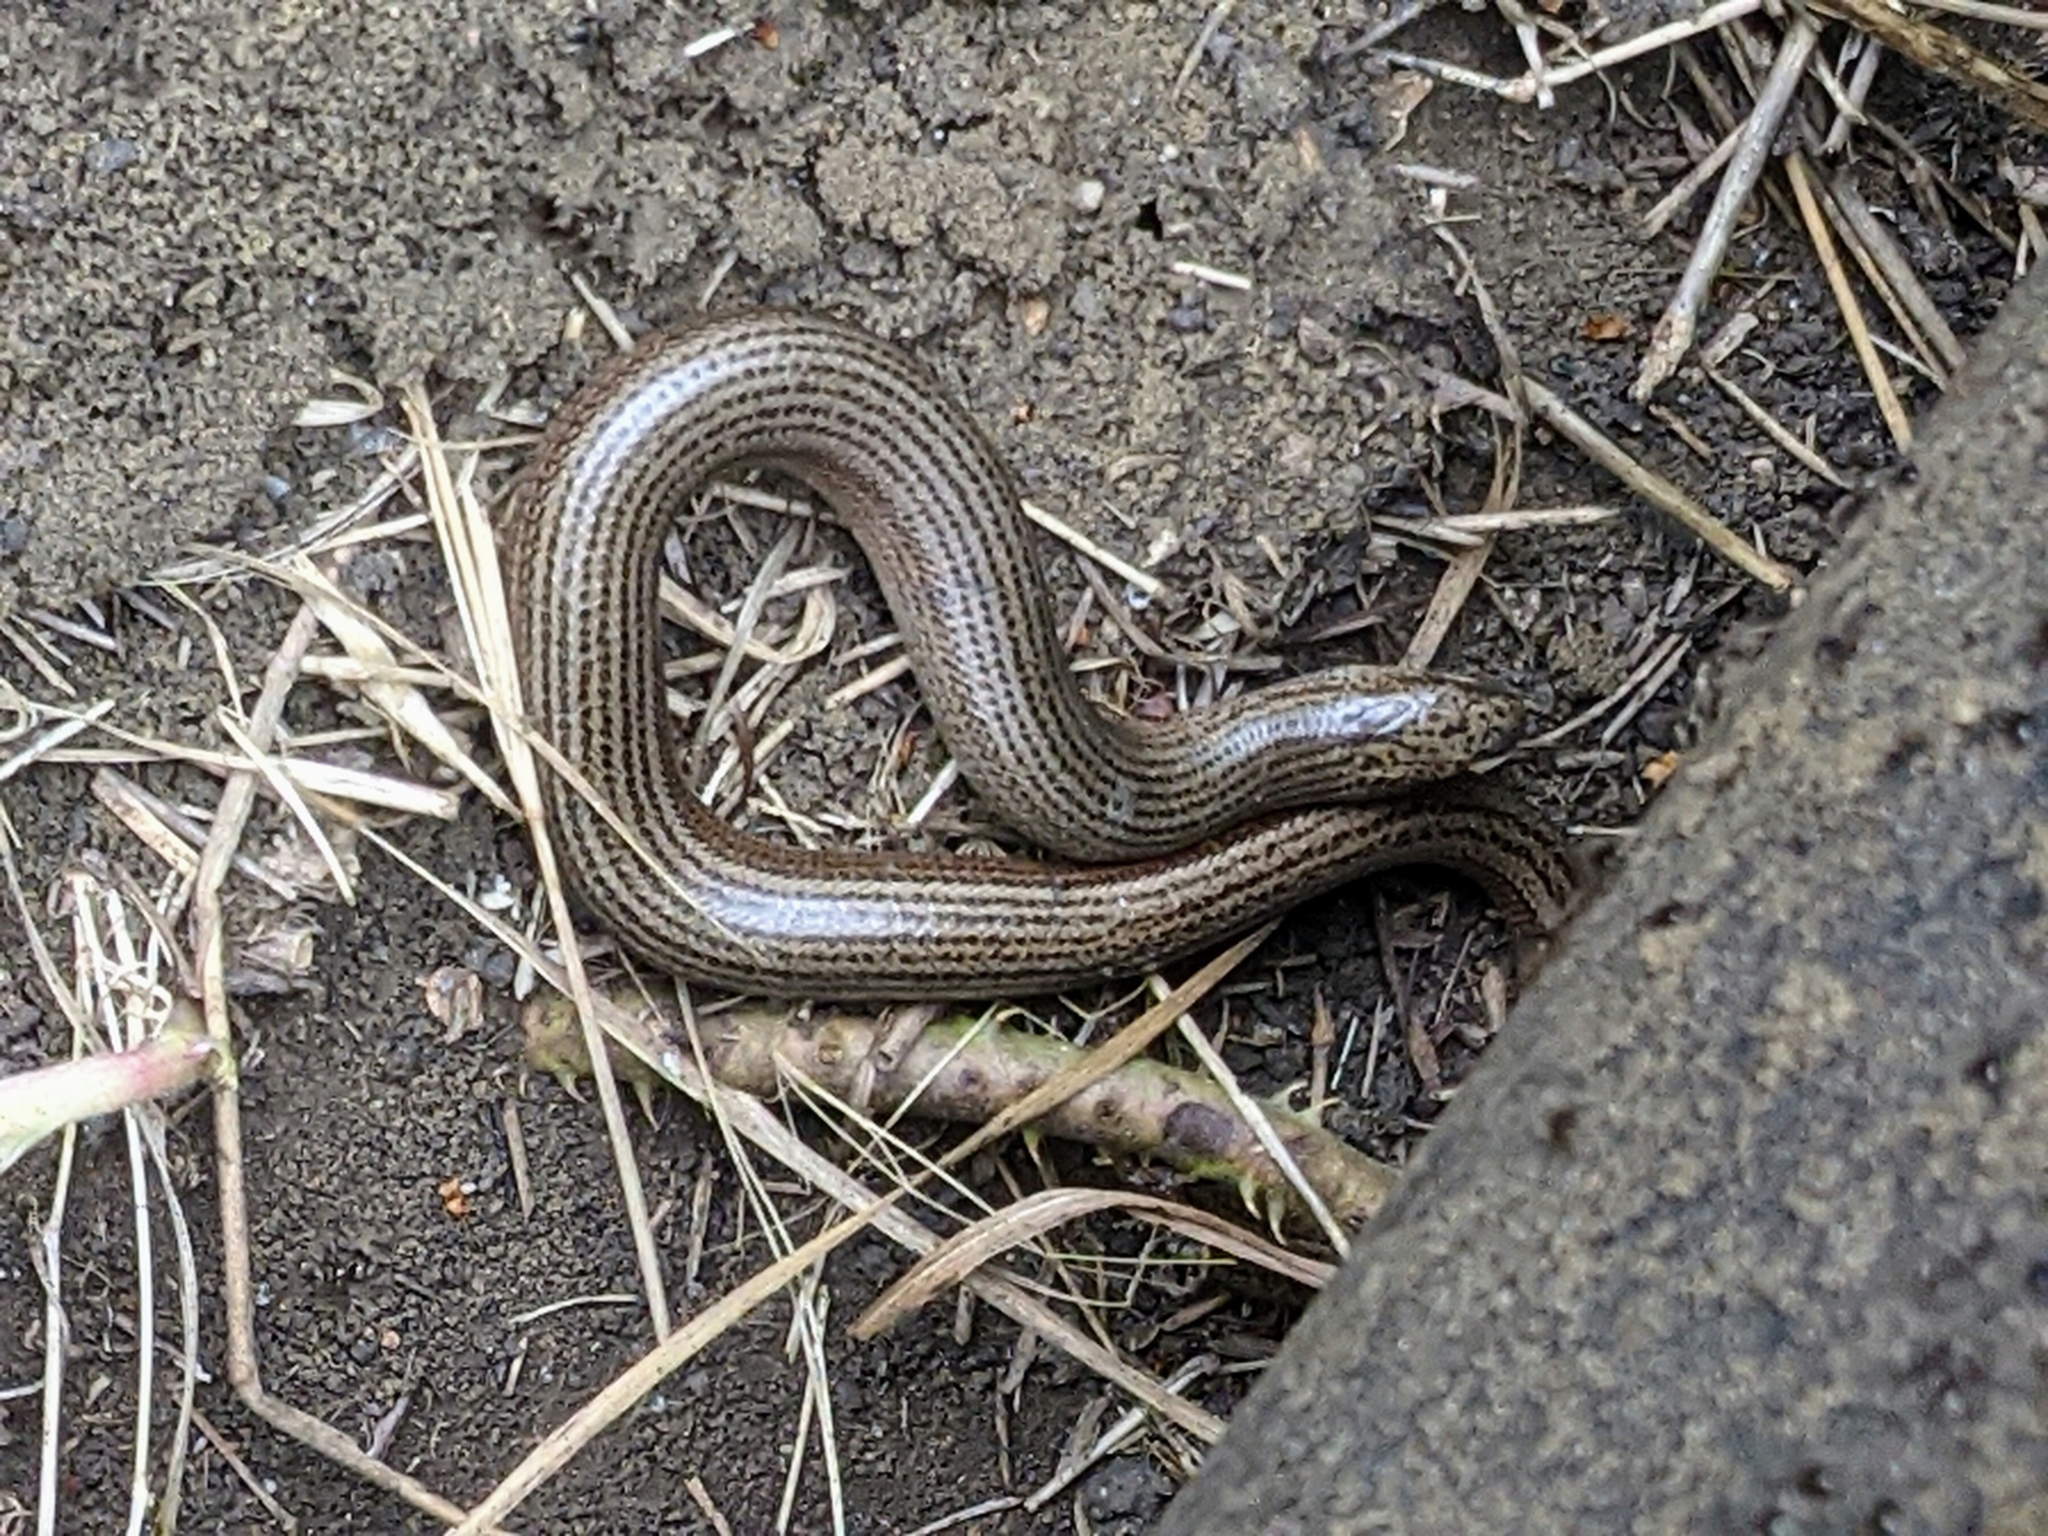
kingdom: Animalia
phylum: Chordata
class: Squamata
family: Anguidae
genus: Anguis
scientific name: Anguis fragilis
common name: Slow worm
